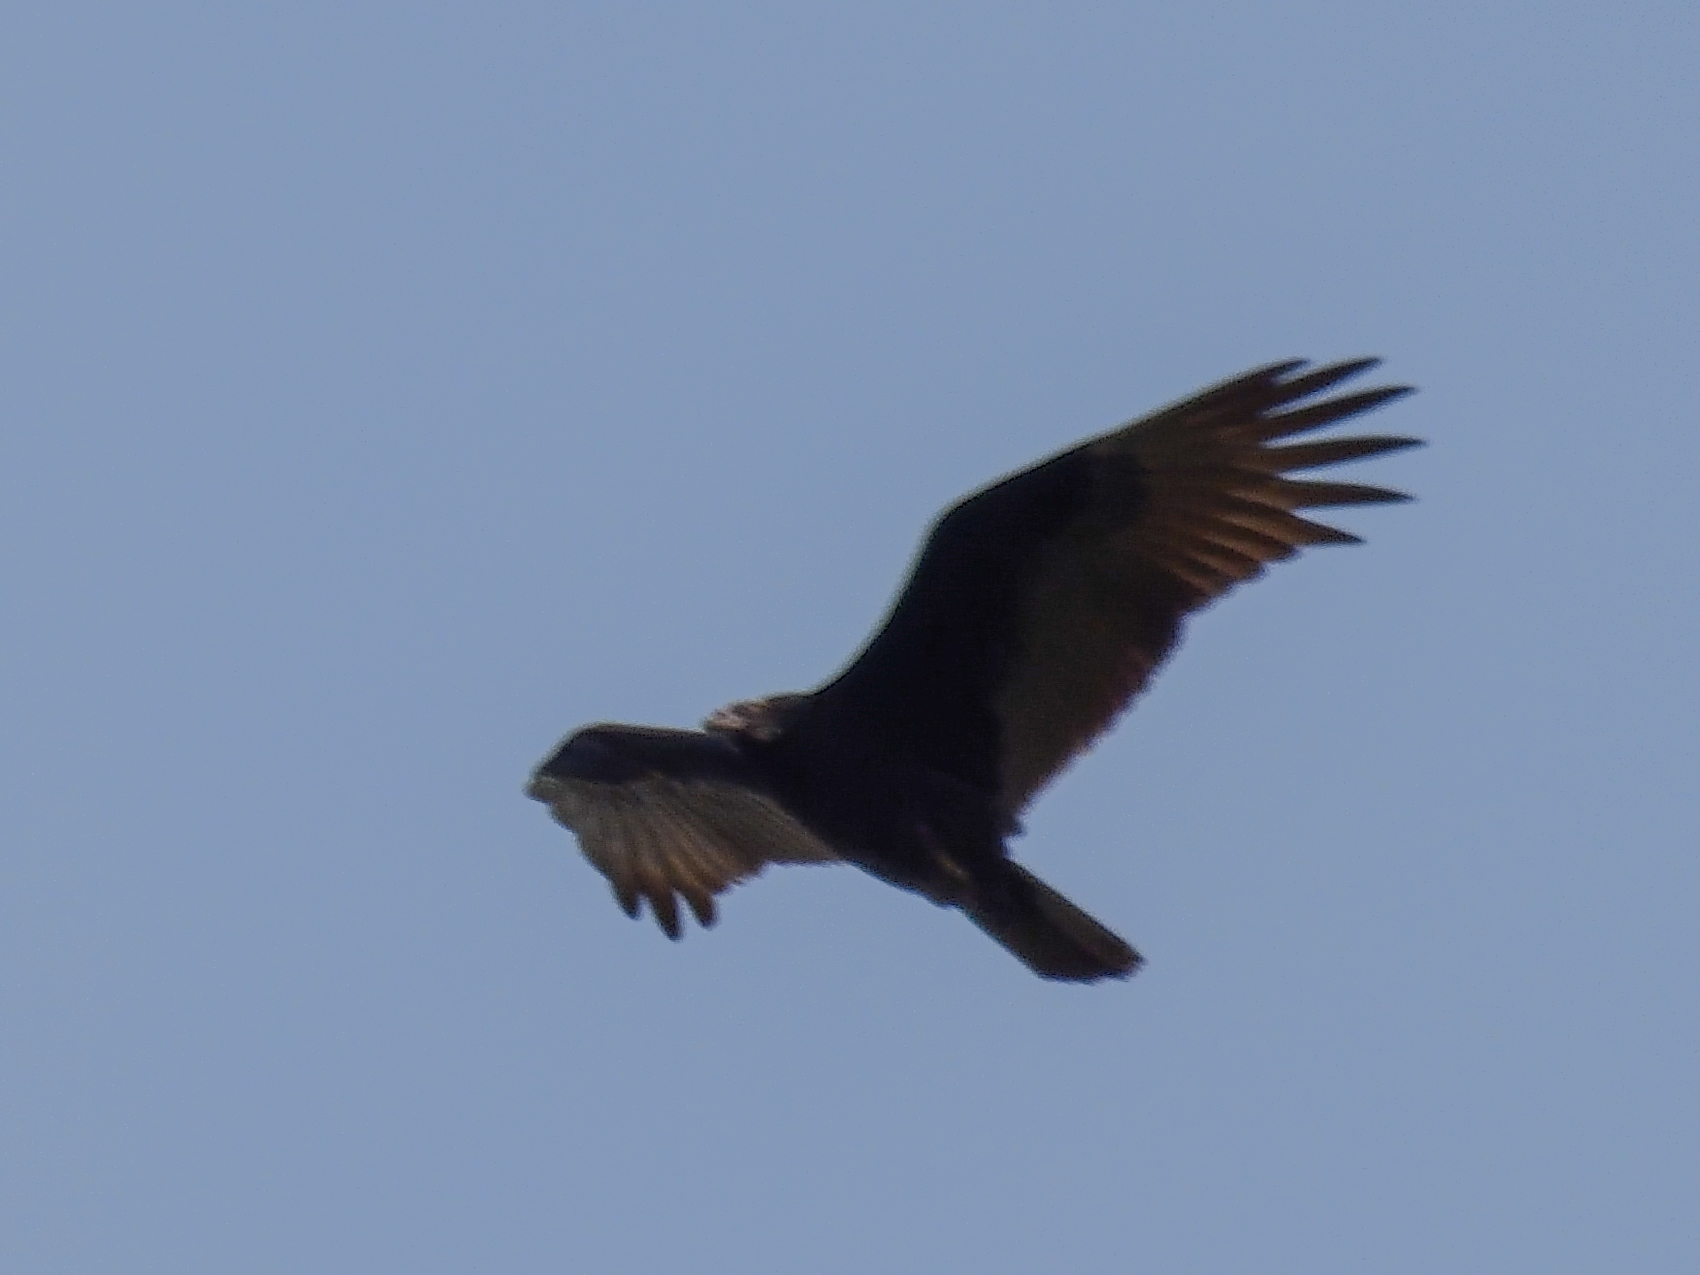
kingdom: Animalia
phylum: Chordata
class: Aves
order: Accipitriformes
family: Cathartidae
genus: Cathartes
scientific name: Cathartes aura
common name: Turkey vulture
